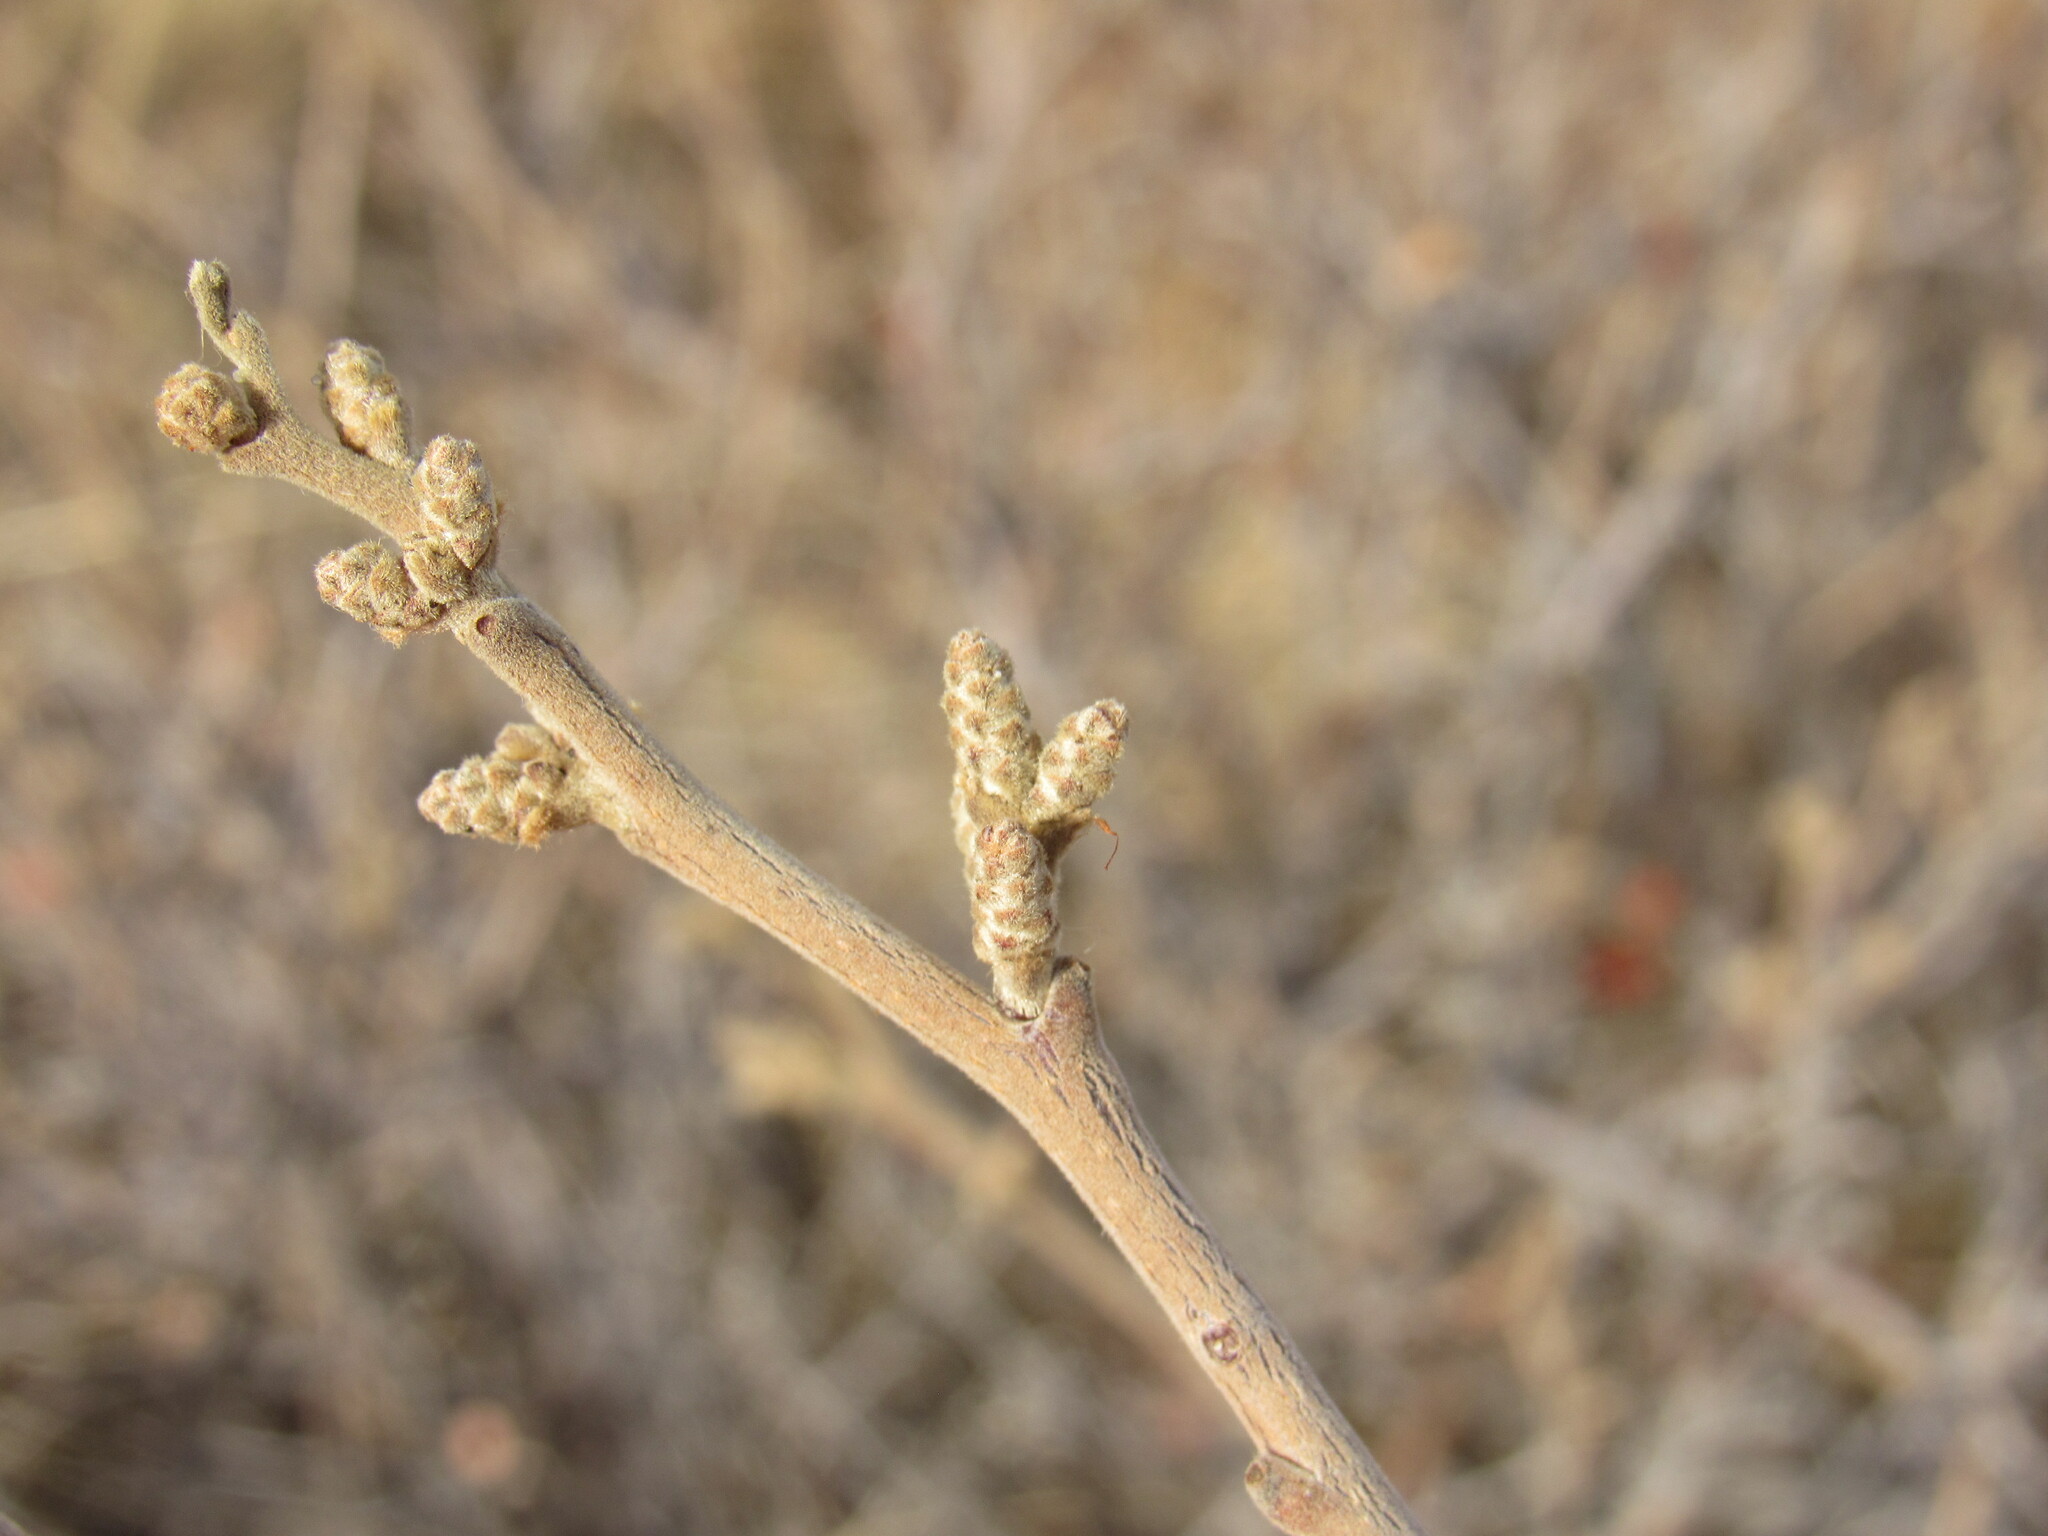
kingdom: Plantae
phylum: Tracheophyta
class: Magnoliopsida
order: Sapindales
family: Anacardiaceae
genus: Rhus
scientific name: Rhus trilobata
